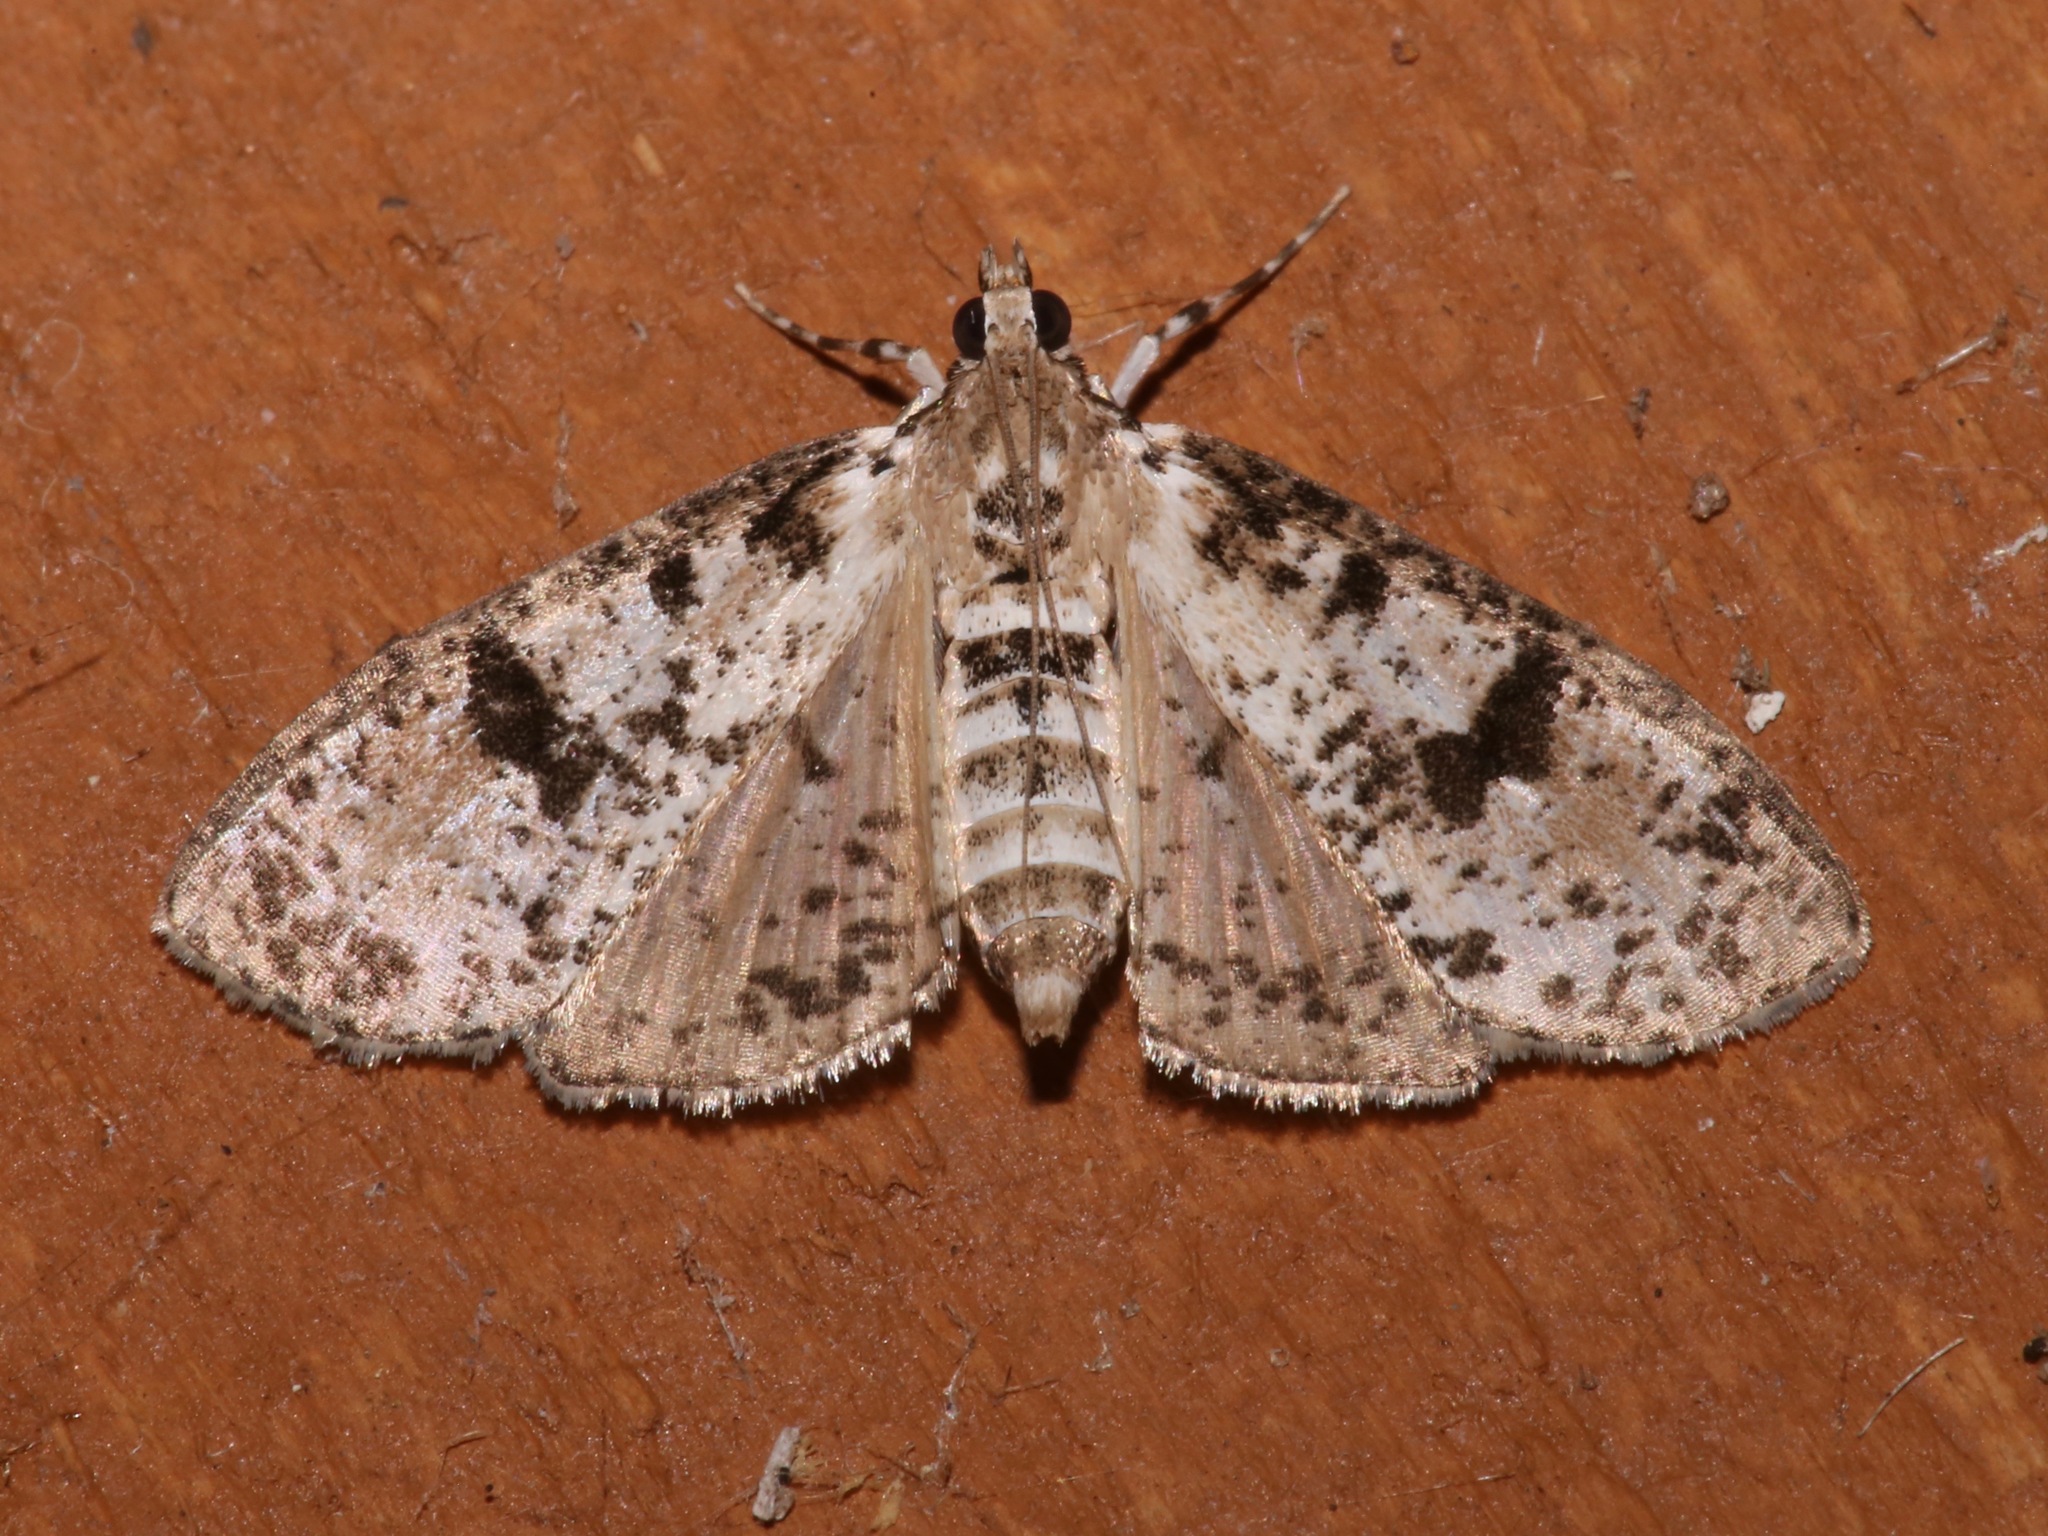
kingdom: Animalia
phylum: Arthropoda
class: Insecta
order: Lepidoptera
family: Crambidae
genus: Palpita
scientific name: Palpita magniferalis
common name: Splendid palpita moth
